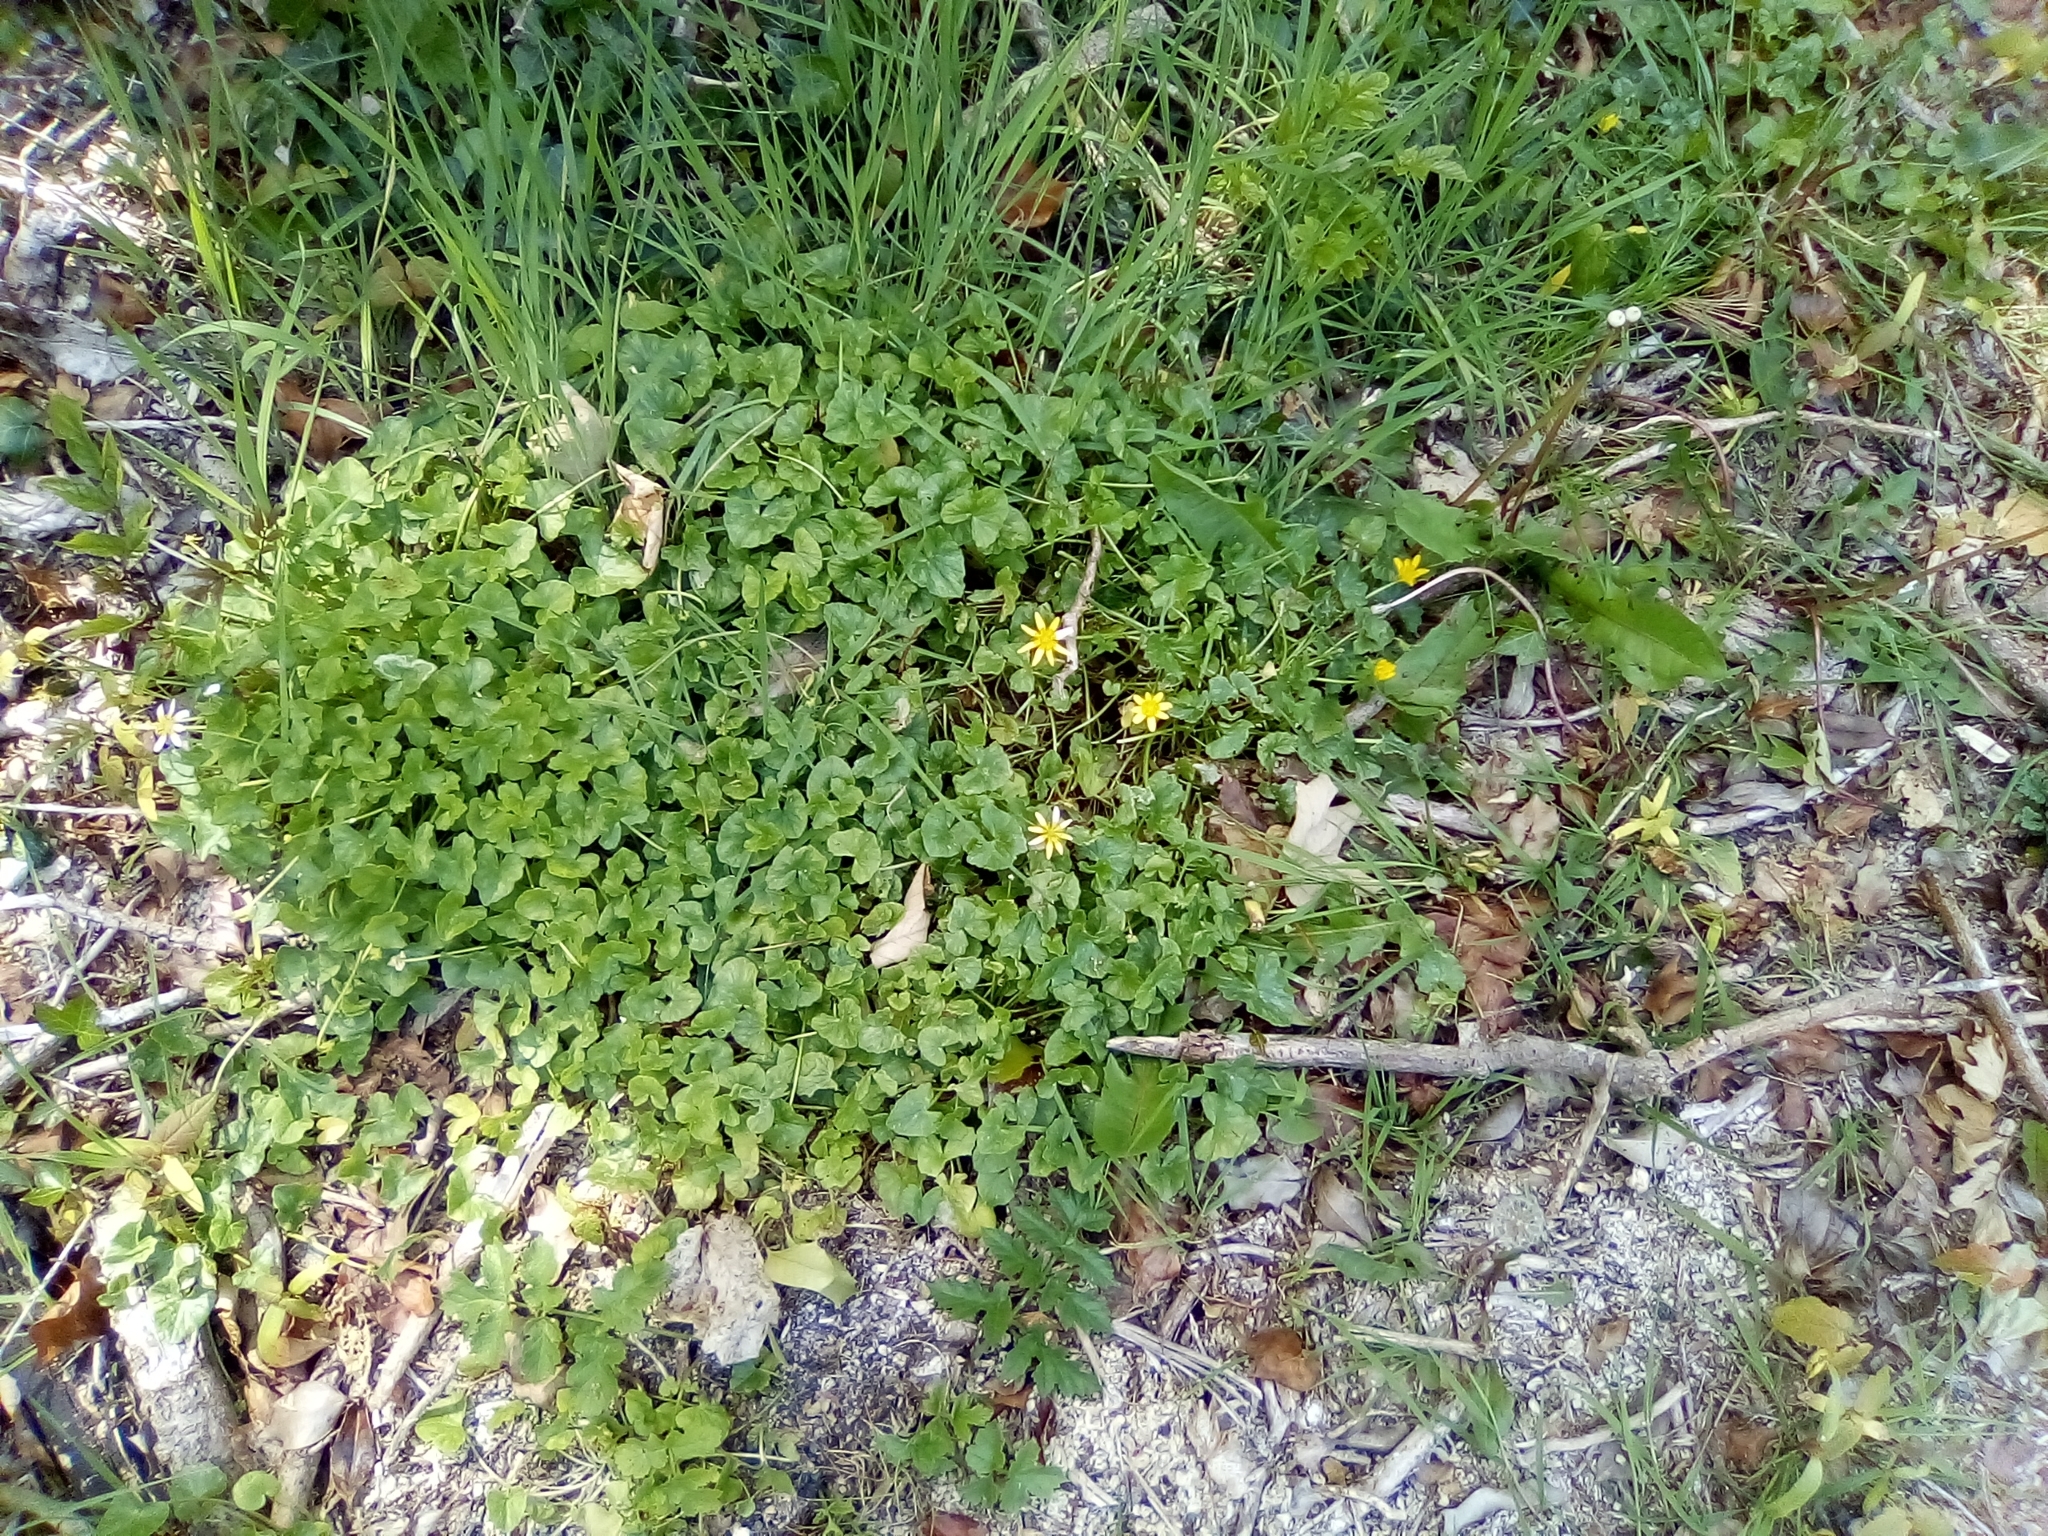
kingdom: Plantae
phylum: Tracheophyta
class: Magnoliopsida
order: Ranunculales
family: Ranunculaceae
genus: Ficaria
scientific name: Ficaria verna
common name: Lesser celandine
